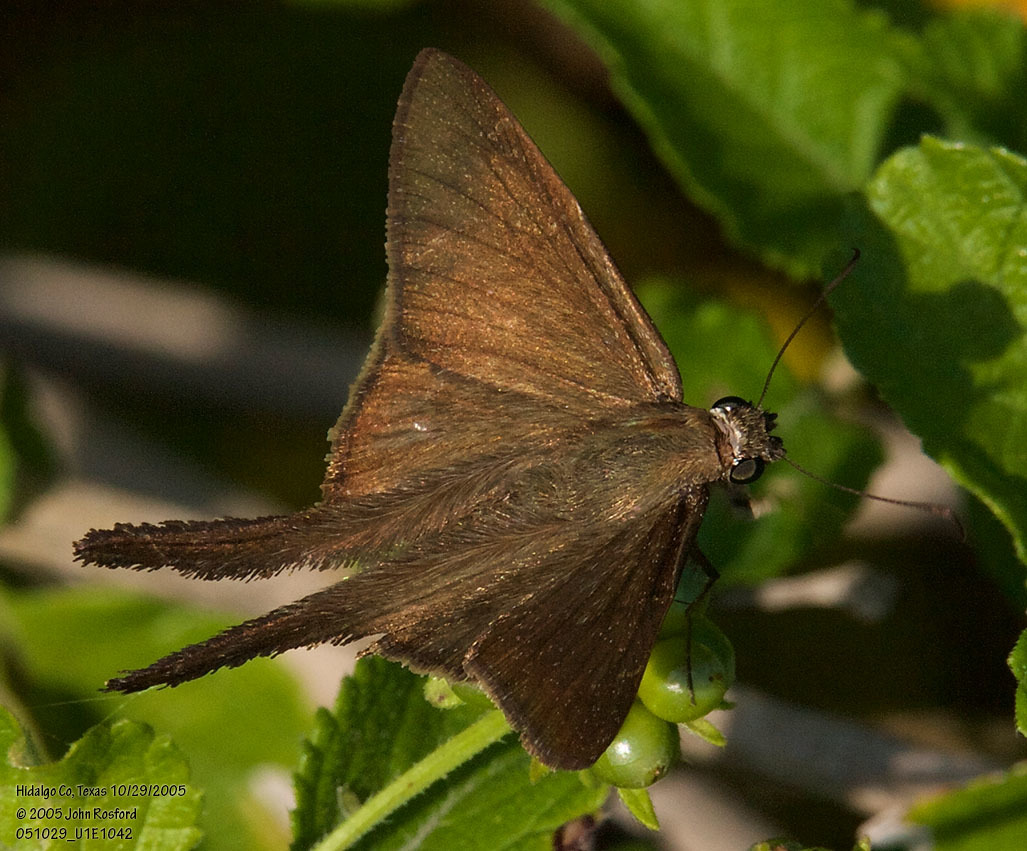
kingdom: Animalia
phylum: Arthropoda
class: Insecta
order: Lepidoptera
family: Hesperiidae
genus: Urbanus
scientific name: Urbanus procne
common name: Brown longtail
